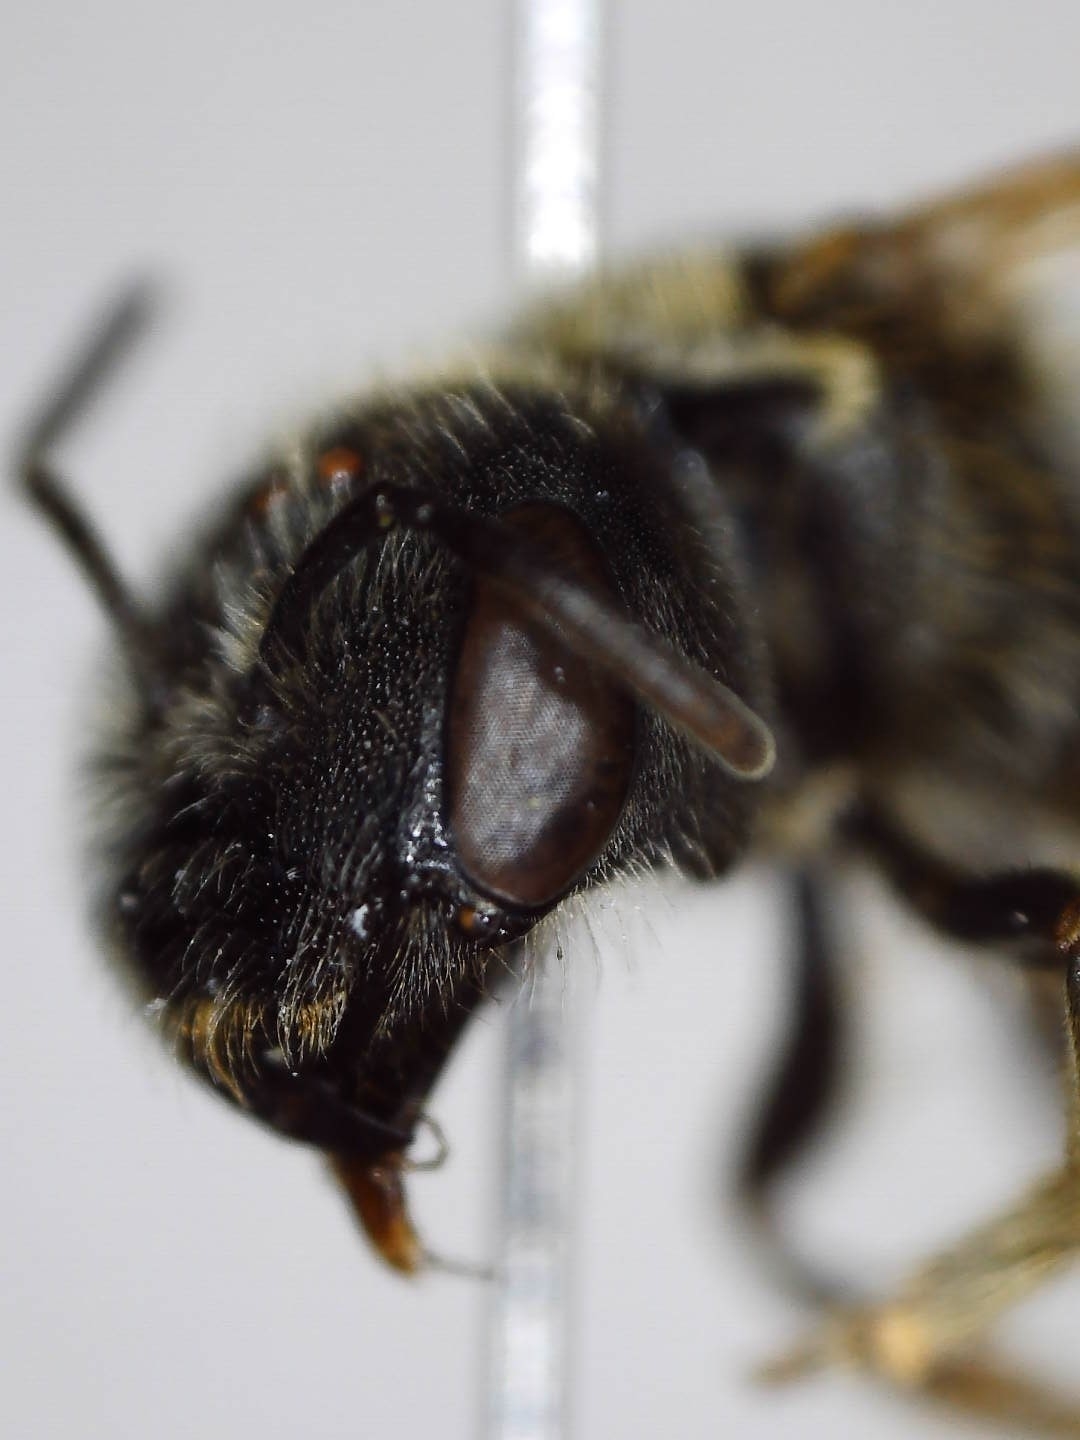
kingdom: Animalia
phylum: Arthropoda
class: Insecta
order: Hymenoptera
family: Halictidae
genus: Halictus
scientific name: Halictus ligatus
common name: Ligated furrow bee
